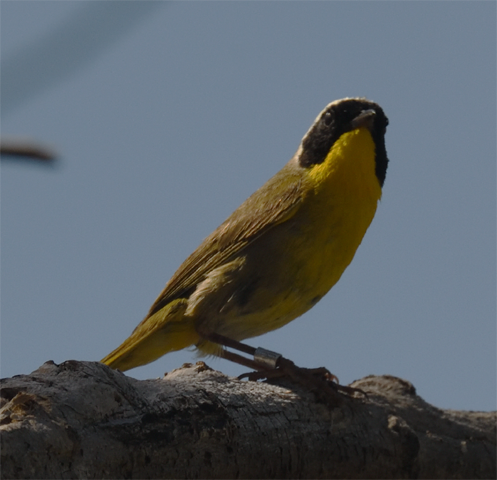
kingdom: Animalia
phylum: Chordata
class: Aves
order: Passeriformes
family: Parulidae
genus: Geothlypis
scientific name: Geothlypis trichas
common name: Common yellowthroat
